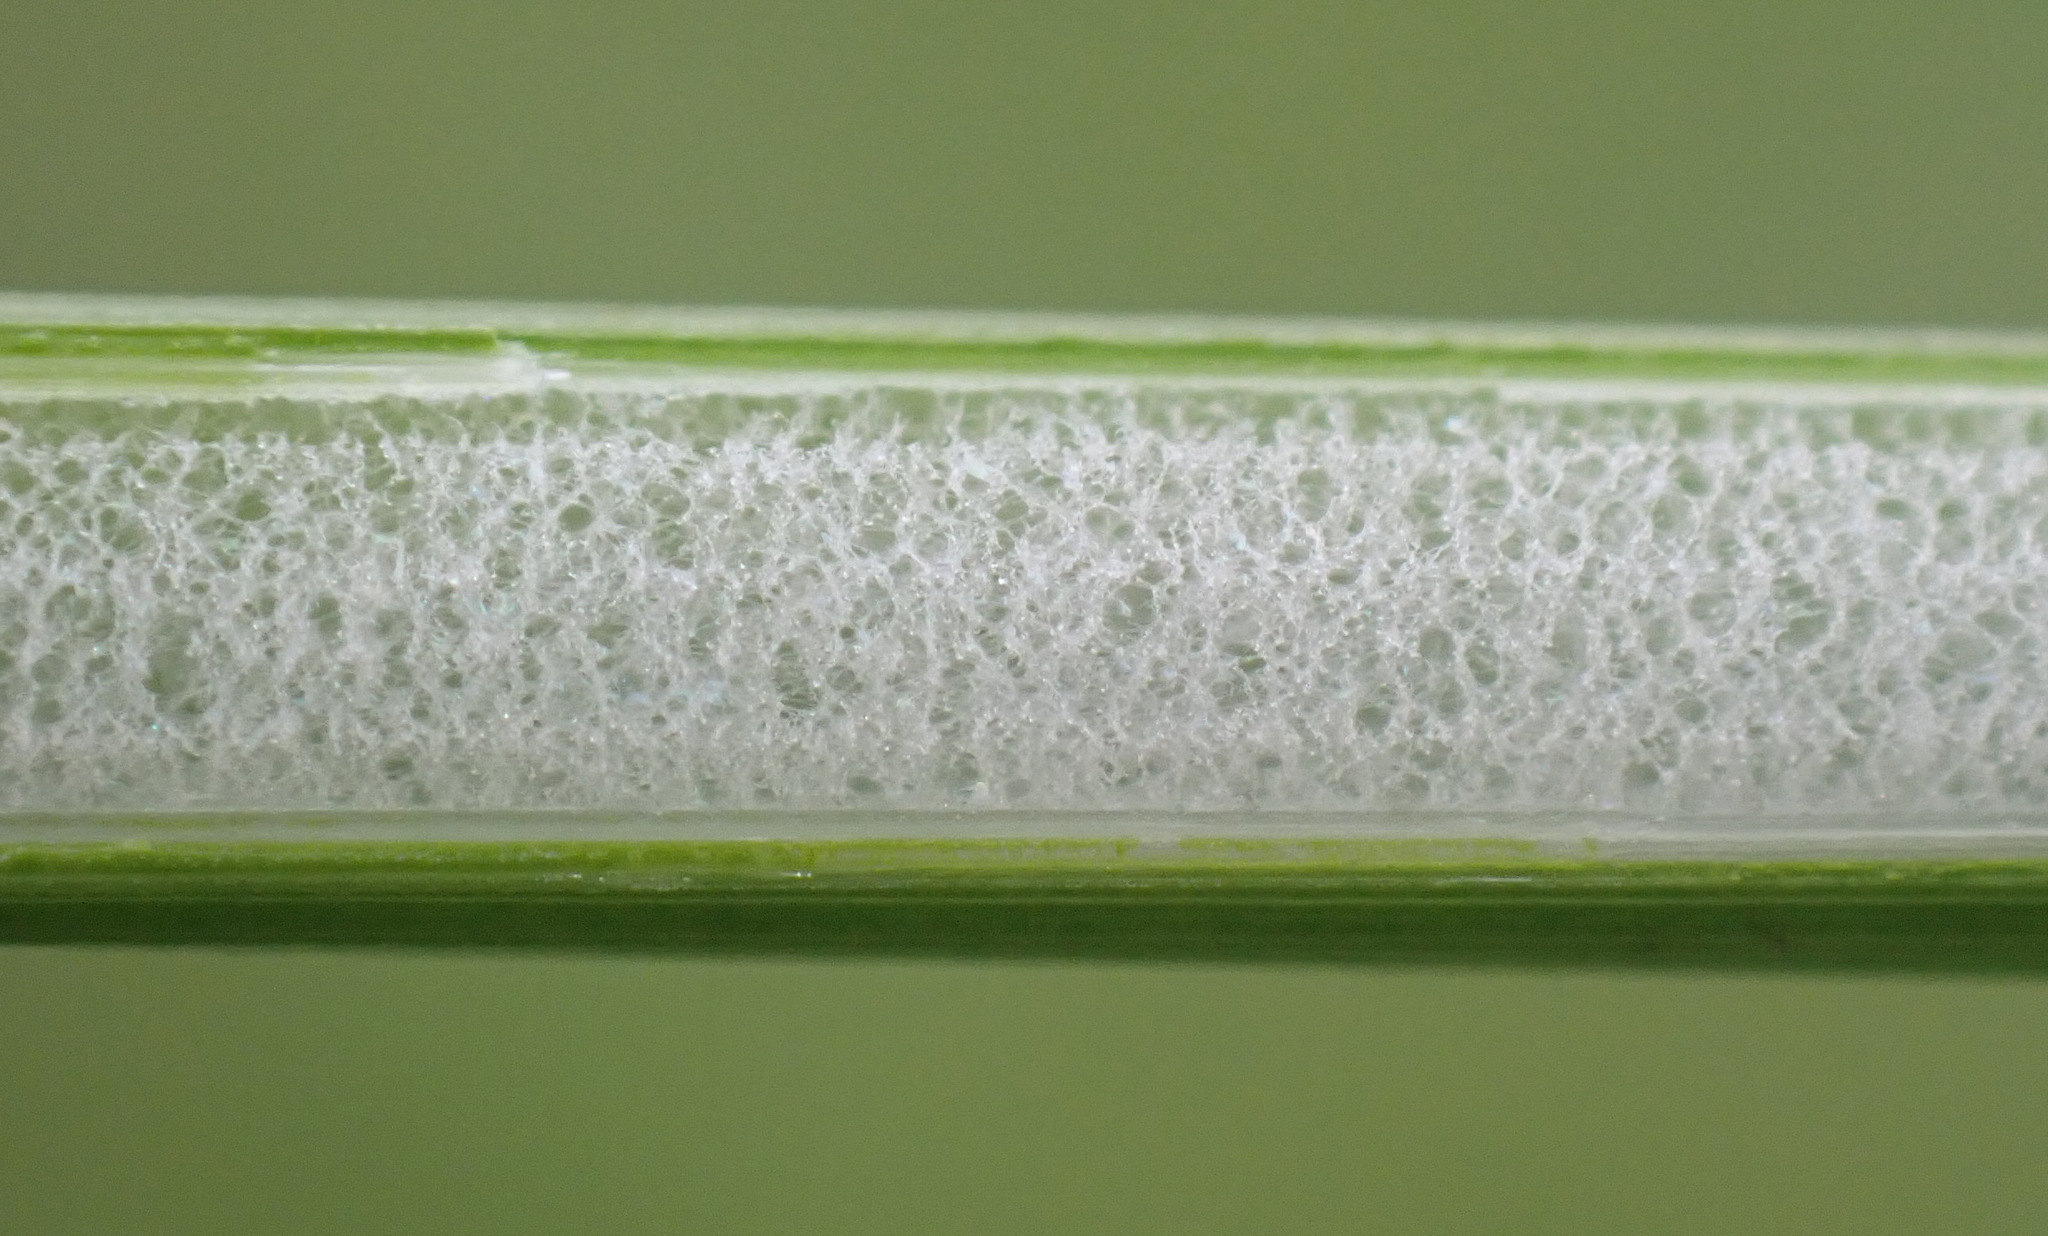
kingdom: Plantae
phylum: Tracheophyta
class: Liliopsida
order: Poales
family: Juncaceae
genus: Juncus
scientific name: Juncus conglomeratus
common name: Compact rush
